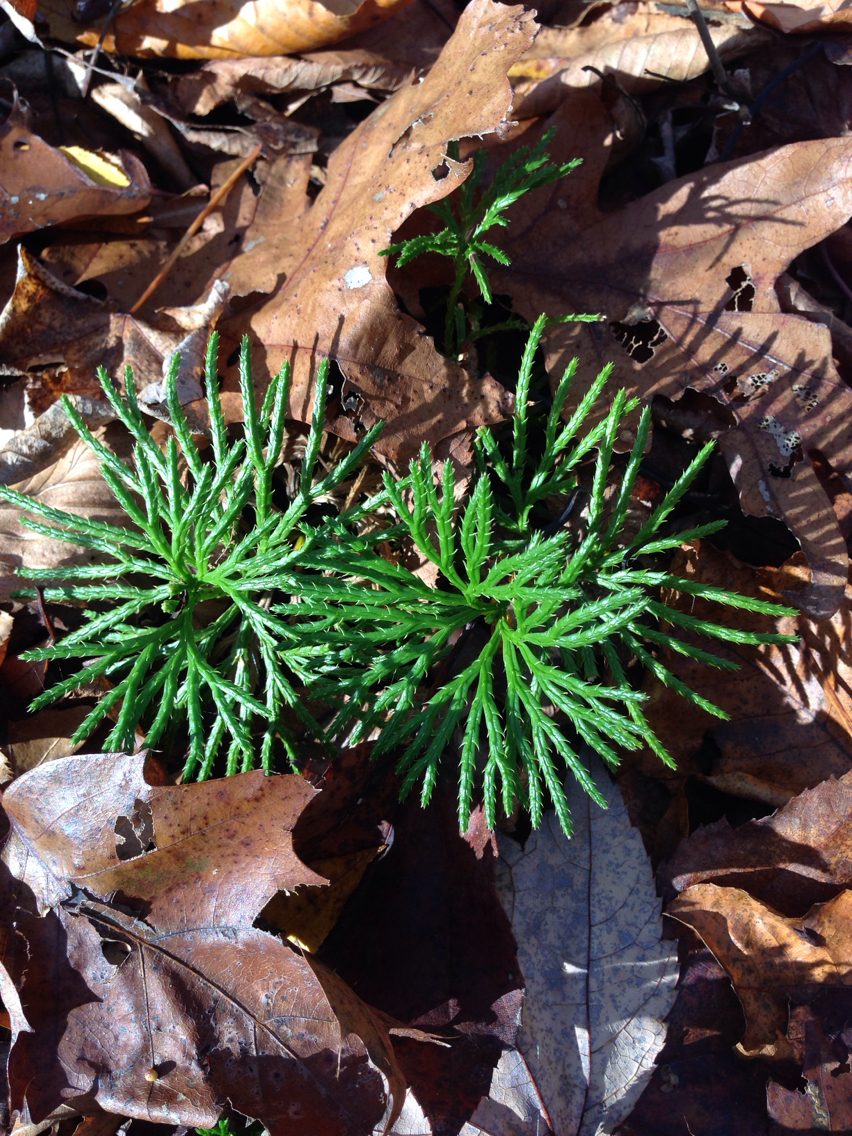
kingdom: Plantae
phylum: Tracheophyta
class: Lycopodiopsida
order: Lycopodiales
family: Lycopodiaceae
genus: Diphasiastrum
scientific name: Diphasiastrum digitatum
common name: Southern running-pine
